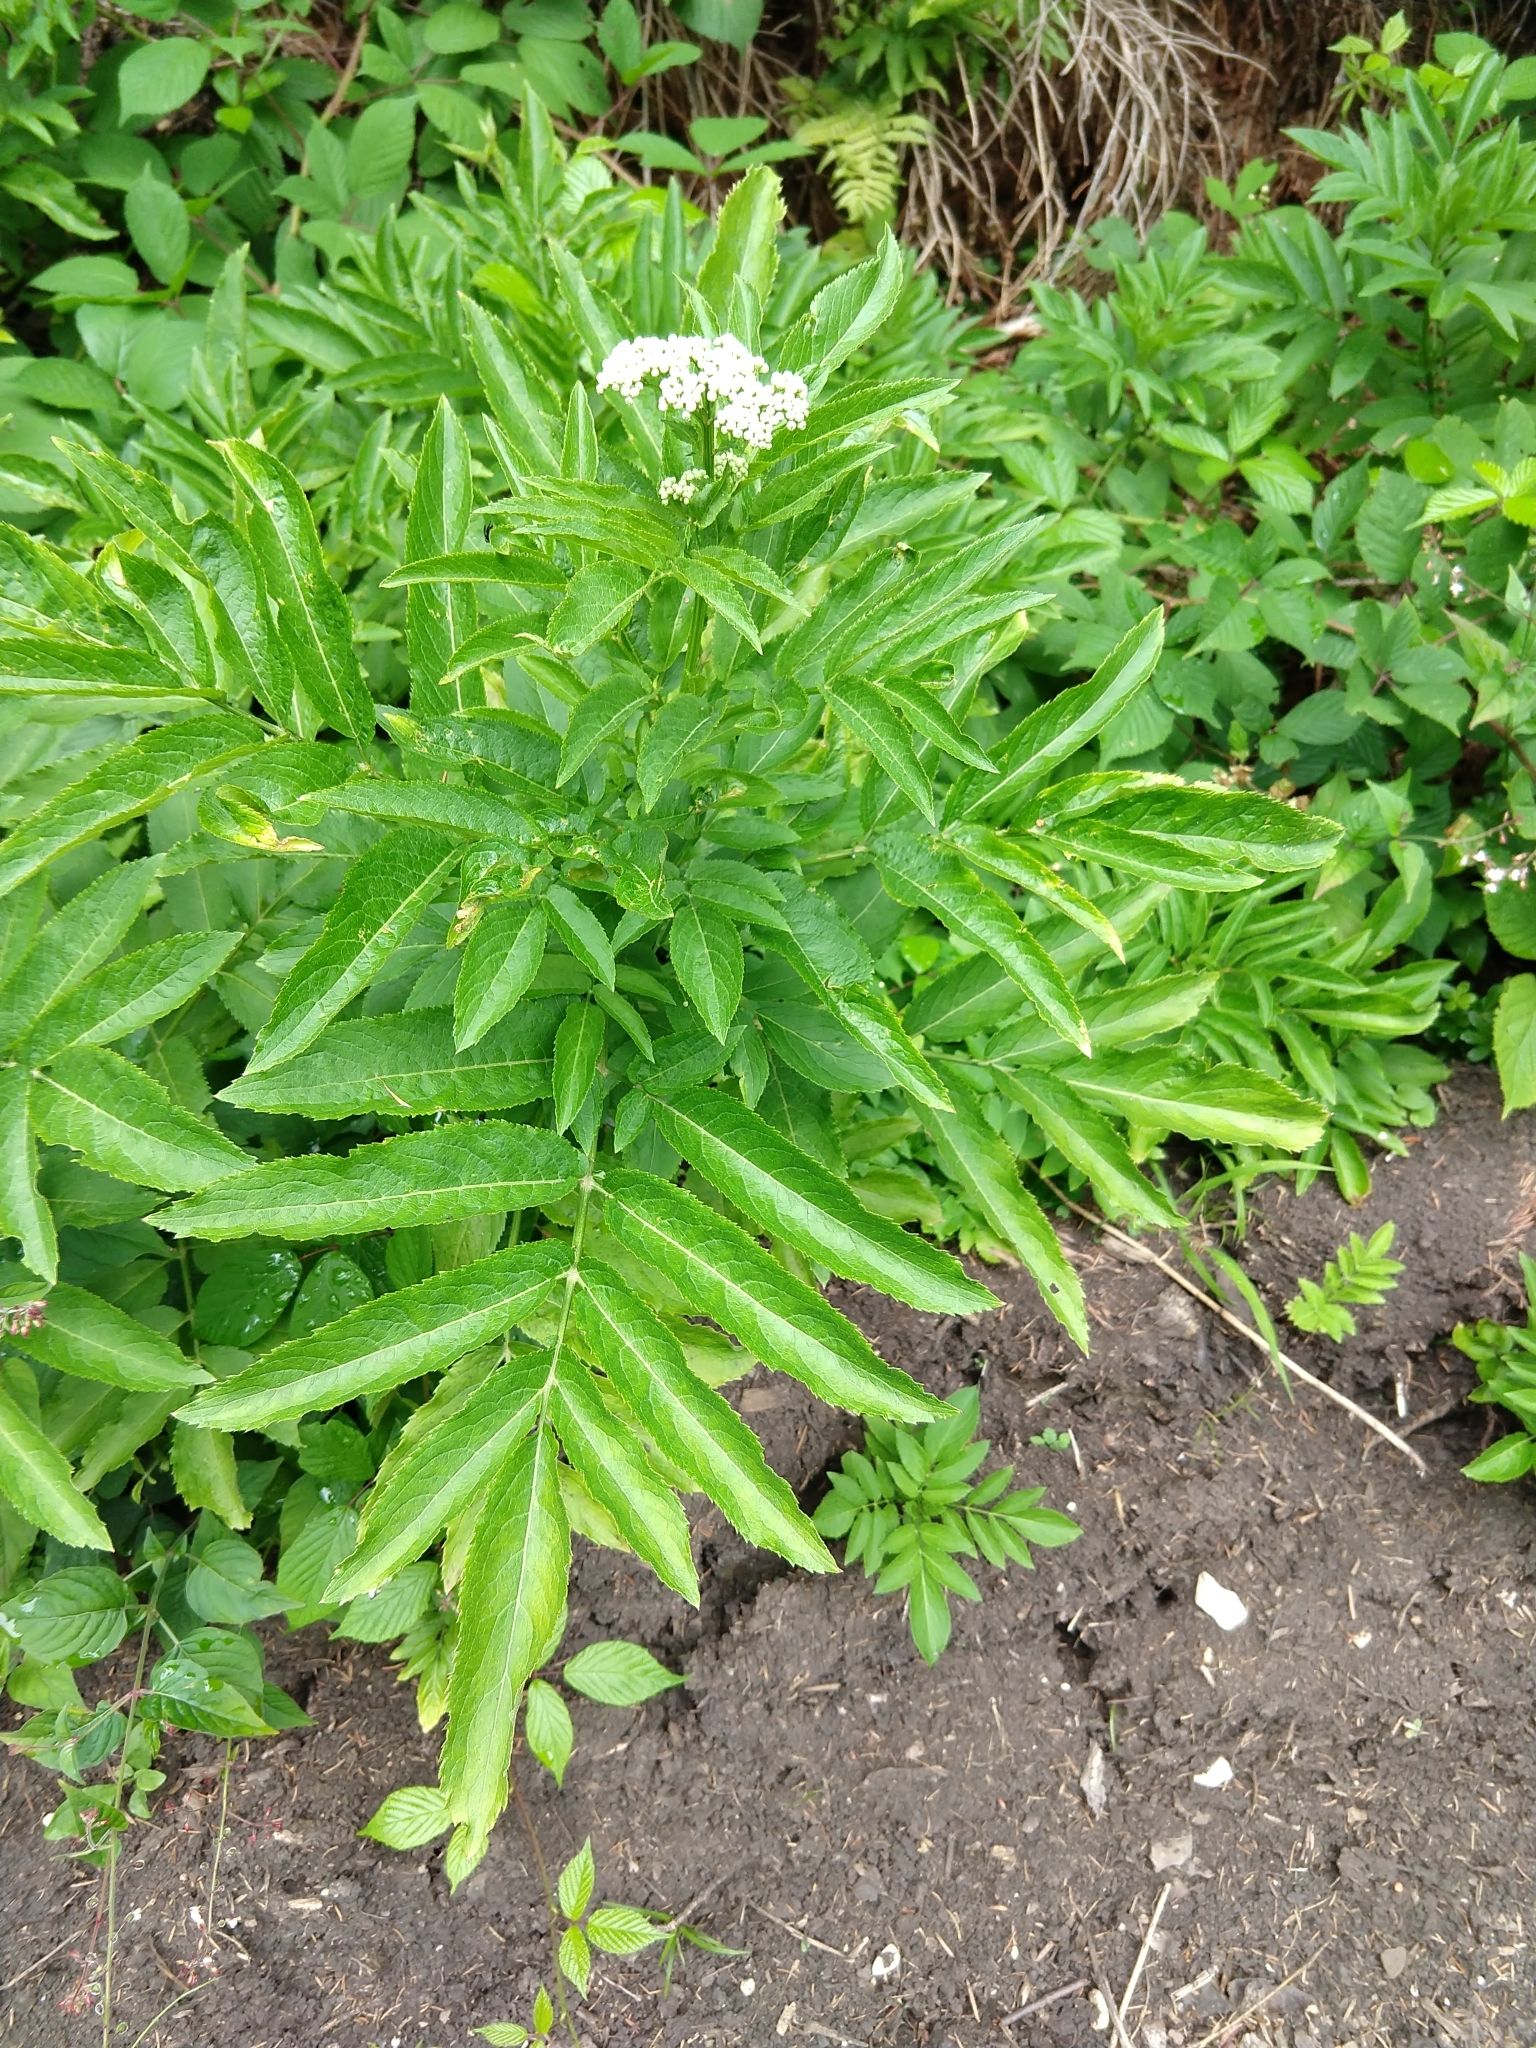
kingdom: Plantae
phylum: Tracheophyta
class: Magnoliopsida
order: Dipsacales
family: Viburnaceae
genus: Sambucus
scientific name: Sambucus ebulus
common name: Dwarf elder
